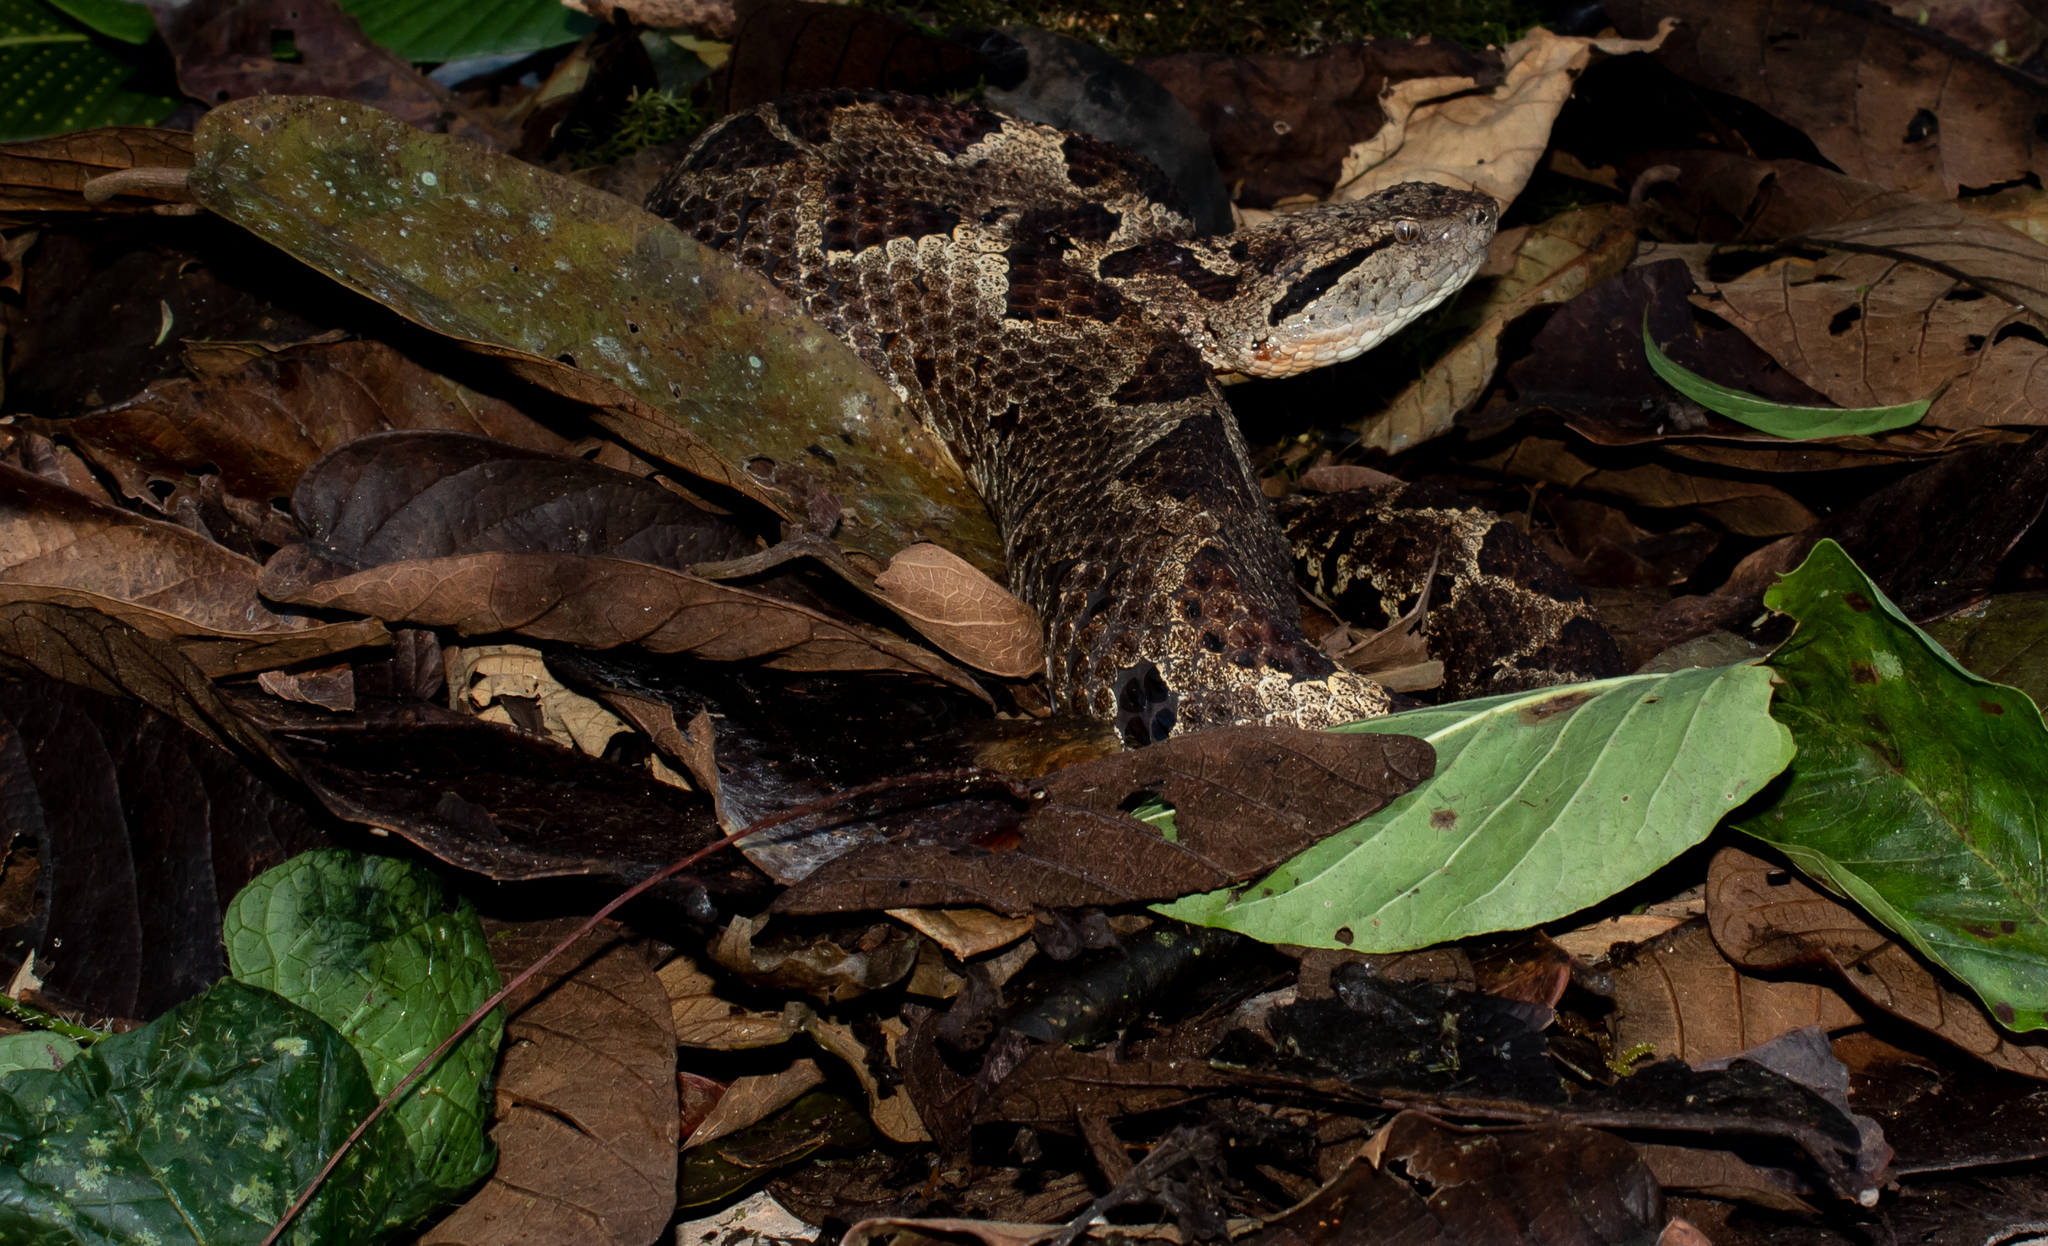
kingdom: Animalia
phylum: Chordata
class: Squamata
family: Viperidae
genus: Metlapilcoatlus
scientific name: Metlapilcoatlus borealis
